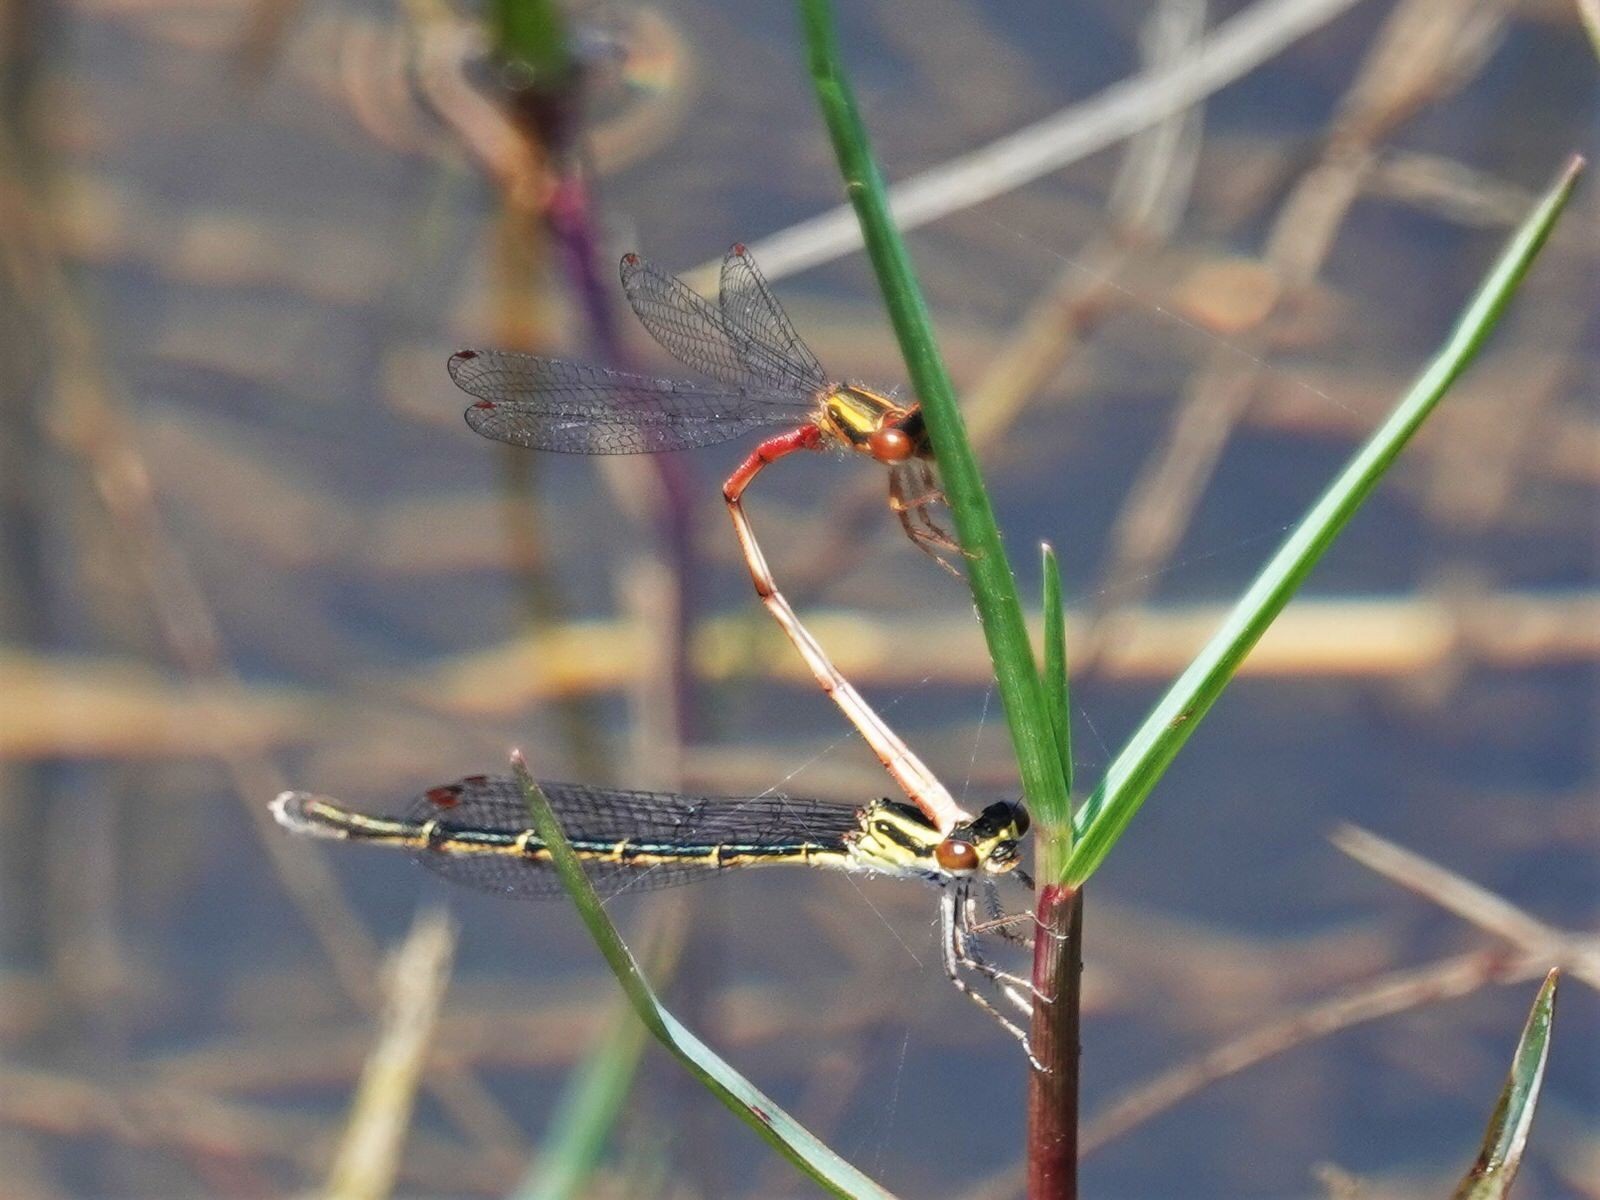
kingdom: Animalia
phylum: Arthropoda
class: Insecta
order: Odonata
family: Coenagrionidae
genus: Xanthocnemis
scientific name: Xanthocnemis zealandica
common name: Common redcoat damselfly
